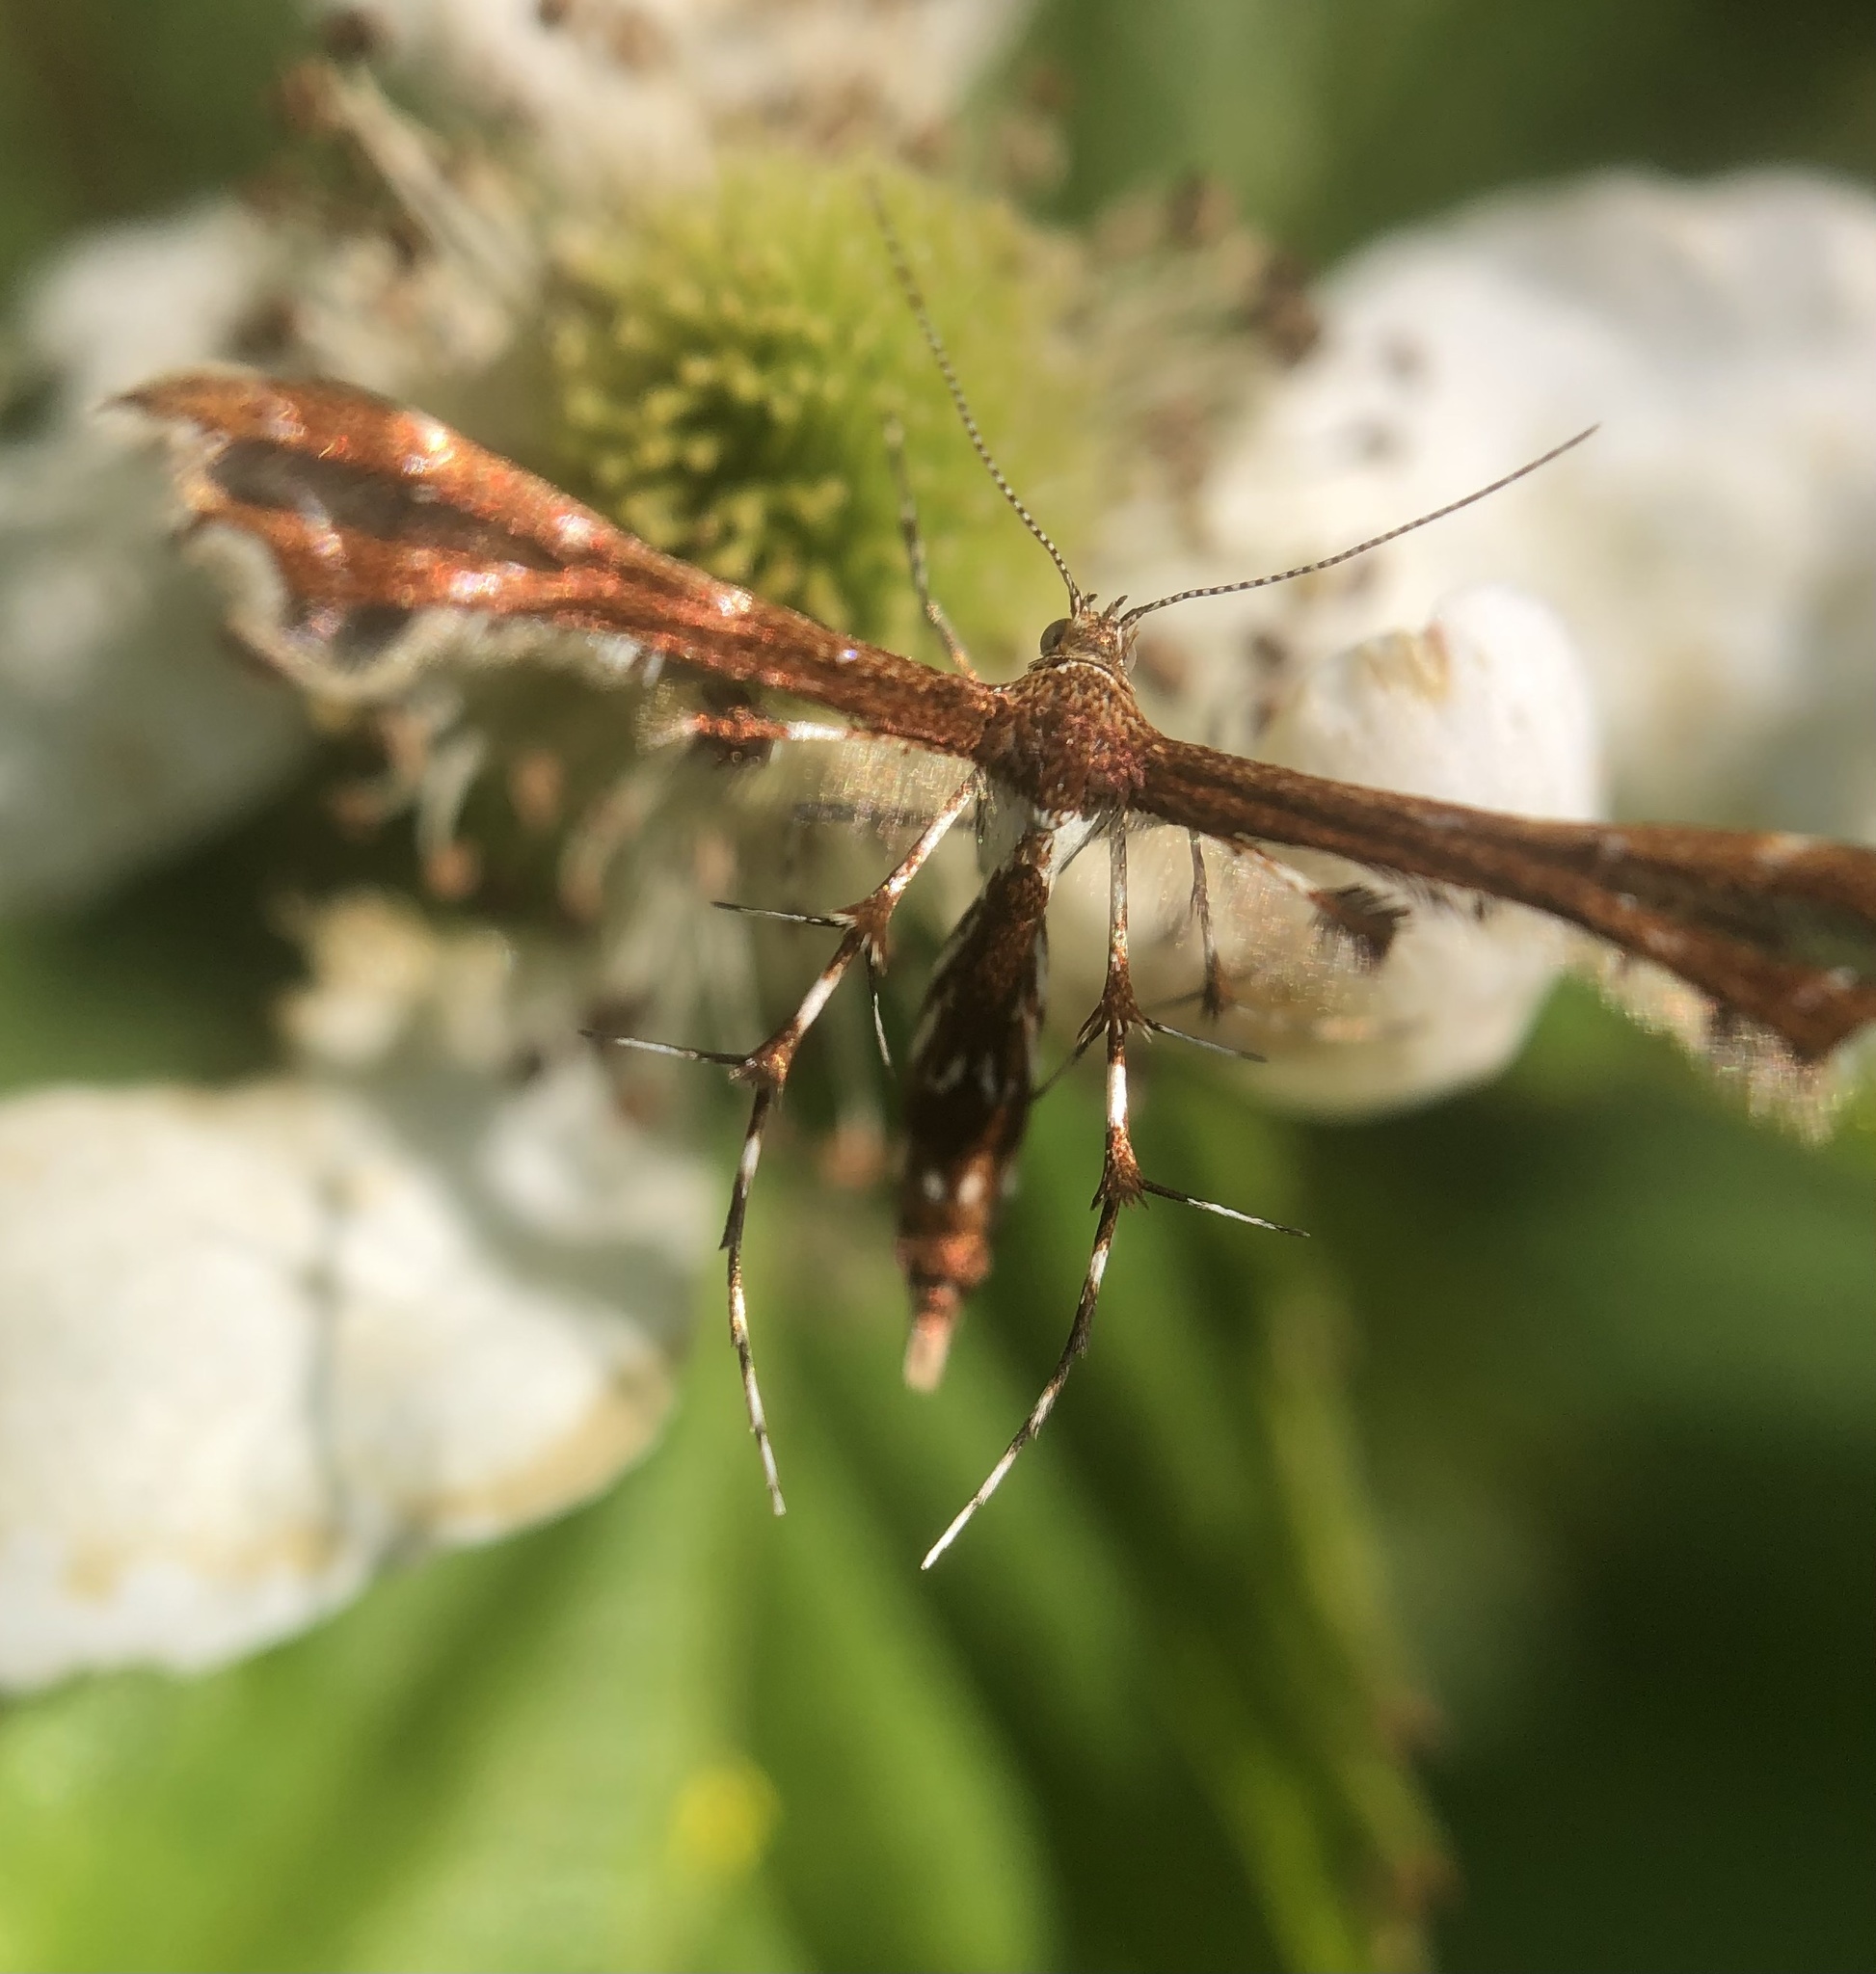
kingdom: Animalia
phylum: Arthropoda
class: Insecta
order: Lepidoptera
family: Pterophoridae
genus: Geina
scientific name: Geina
